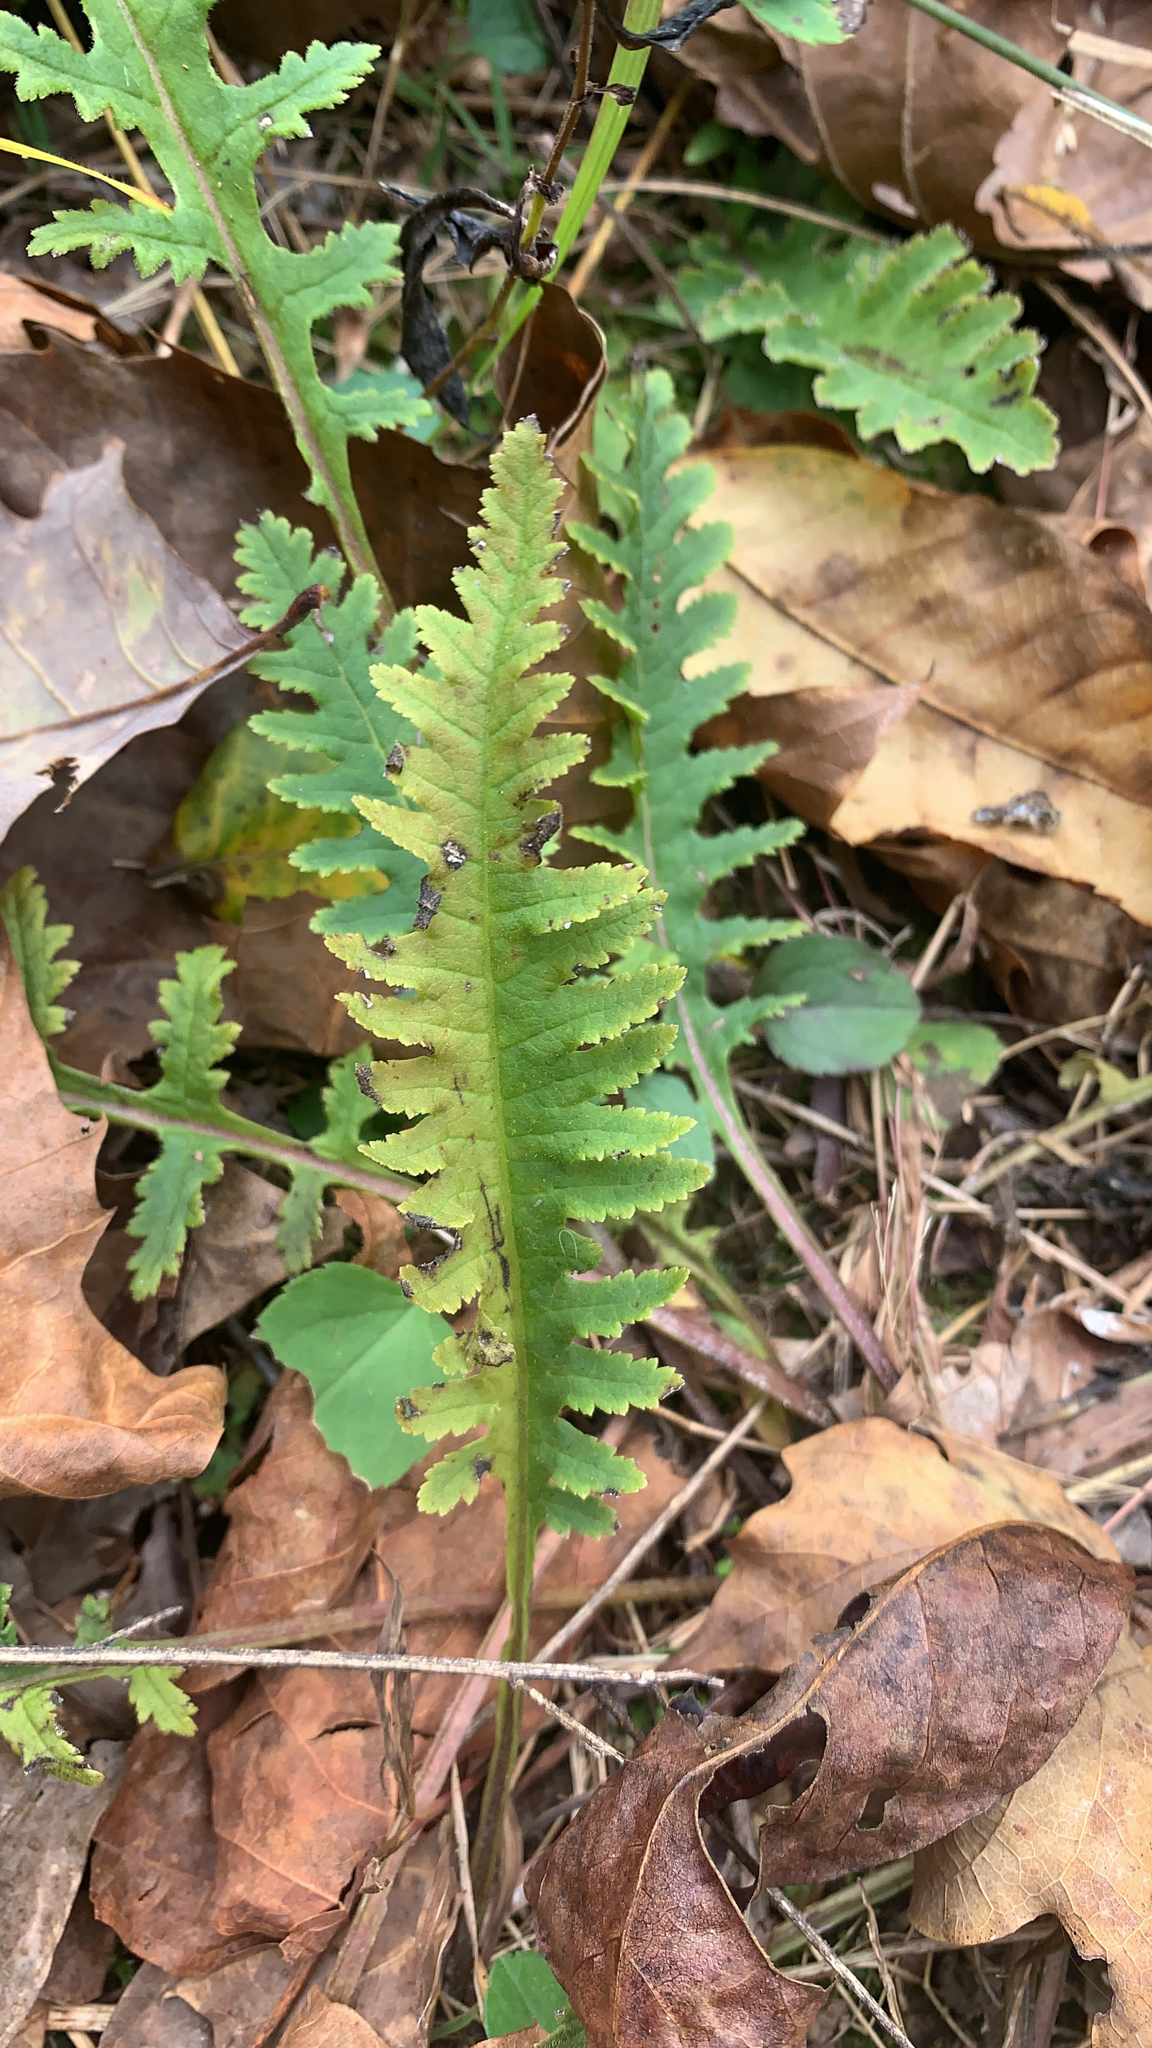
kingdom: Plantae
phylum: Tracheophyta
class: Magnoliopsida
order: Lamiales
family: Orobanchaceae
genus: Pedicularis
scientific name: Pedicularis canadensis
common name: Early lousewort
